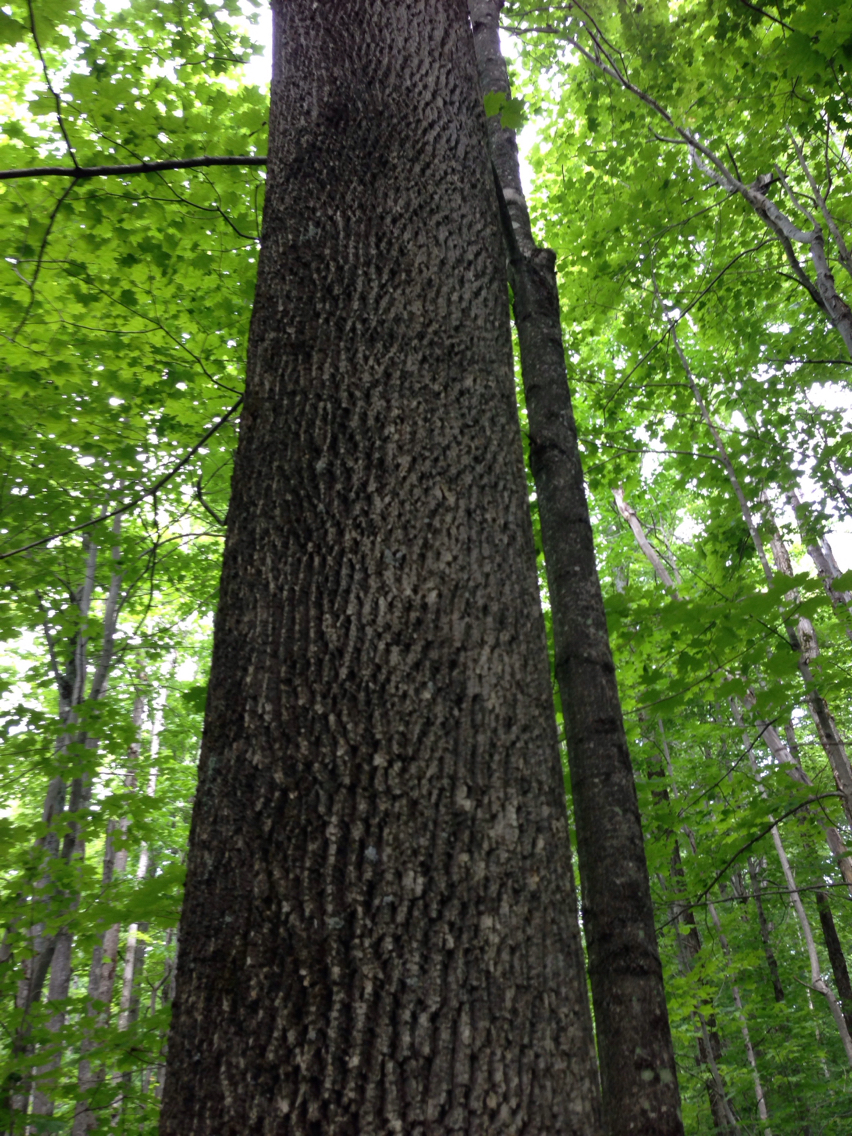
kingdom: Plantae
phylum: Tracheophyta
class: Magnoliopsida
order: Lamiales
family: Oleaceae
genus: Fraxinus
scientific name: Fraxinus americana
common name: White ash
